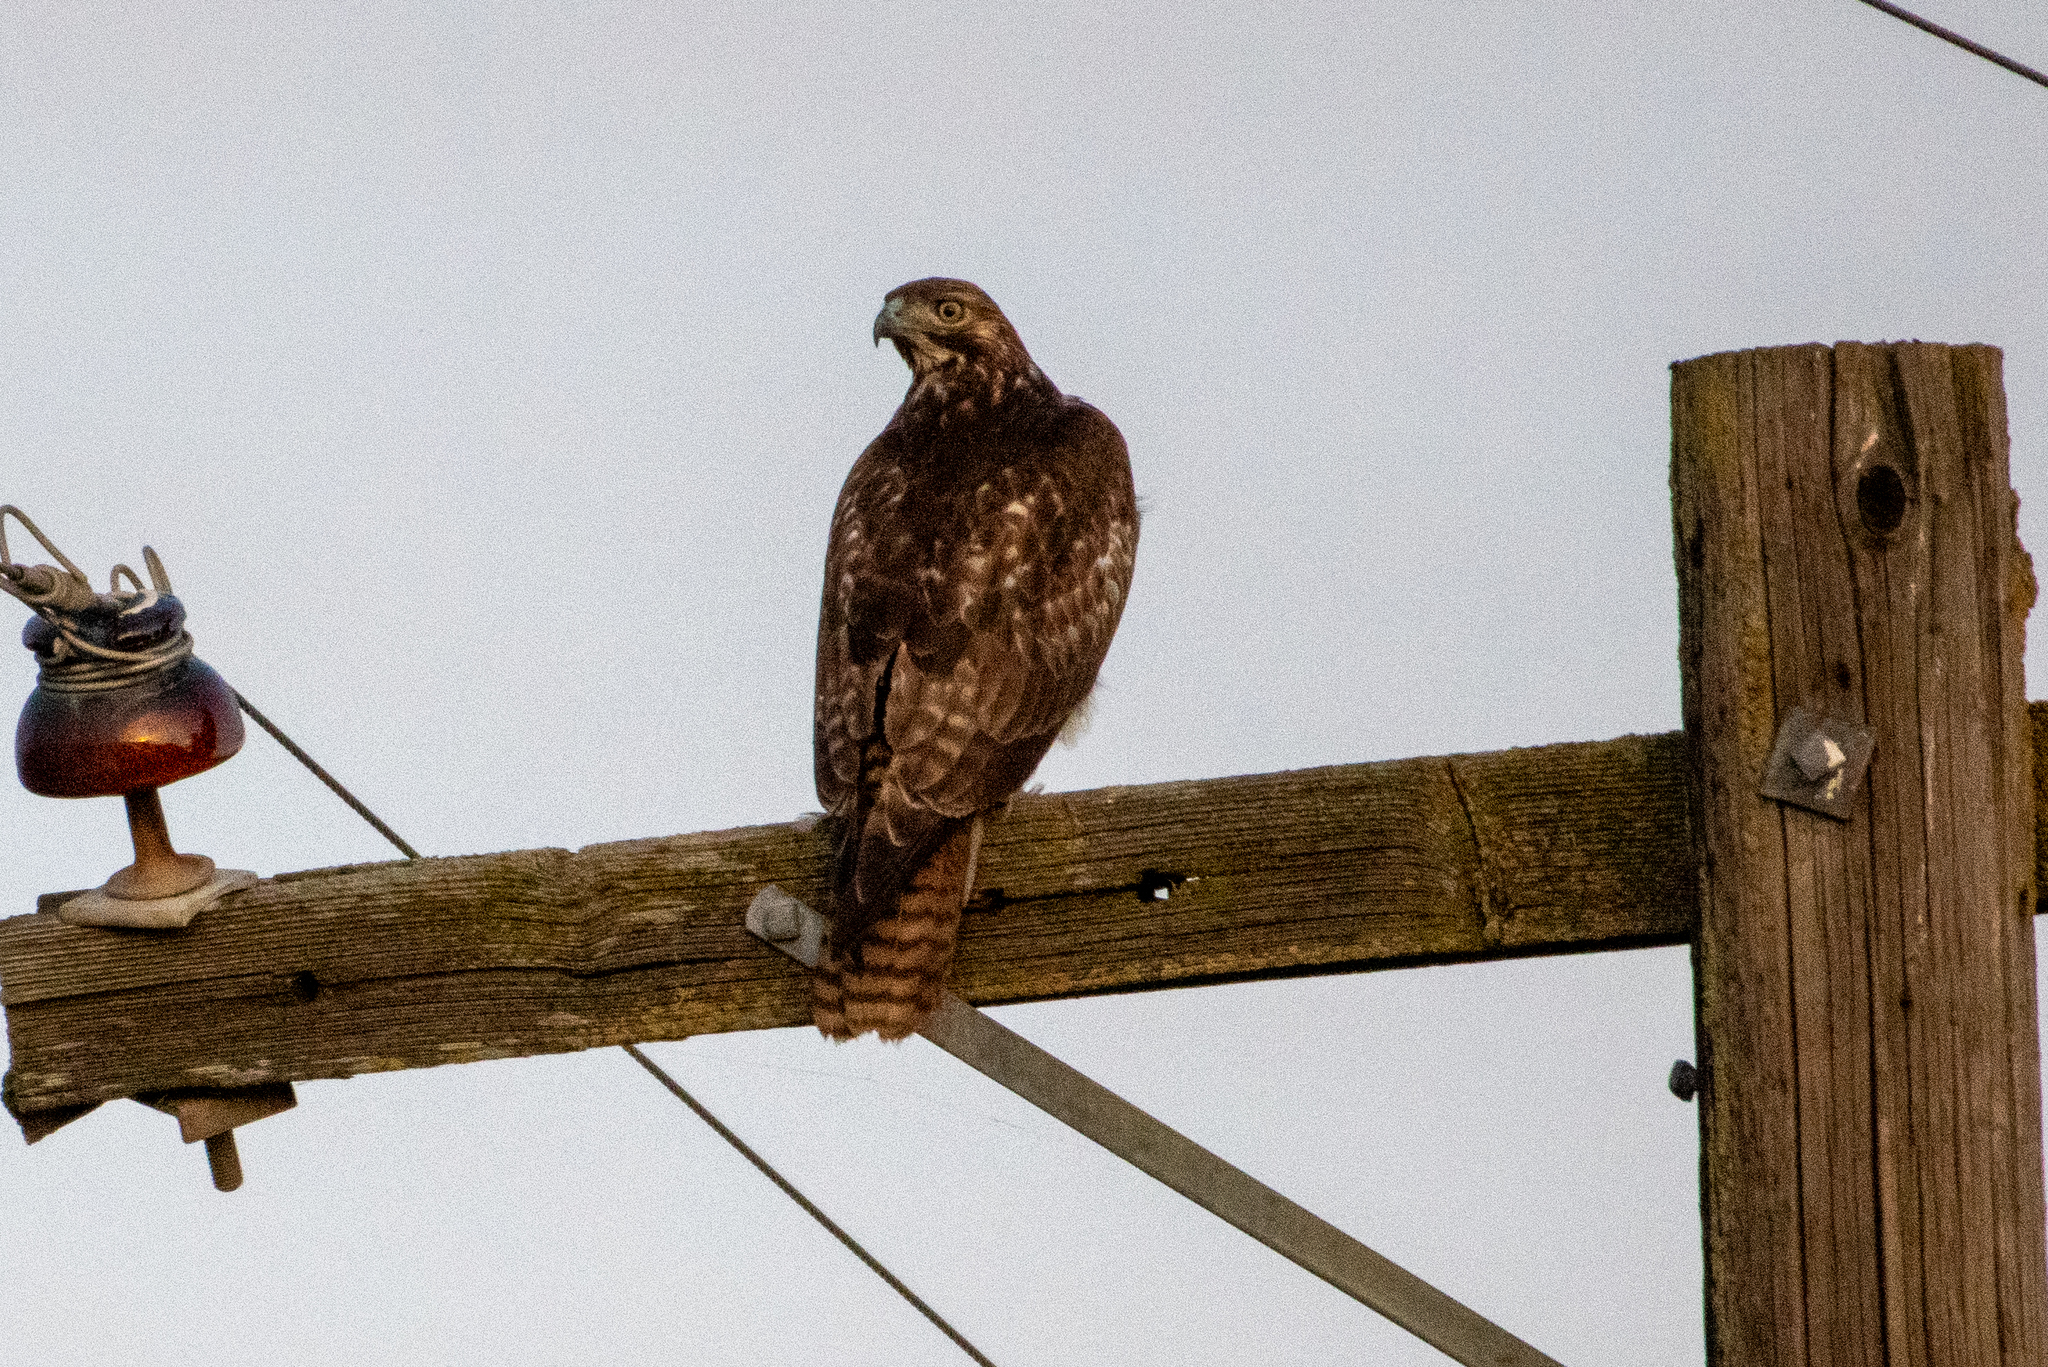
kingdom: Animalia
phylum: Chordata
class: Aves
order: Accipitriformes
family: Accipitridae
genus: Buteo
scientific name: Buteo jamaicensis
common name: Red-tailed hawk
